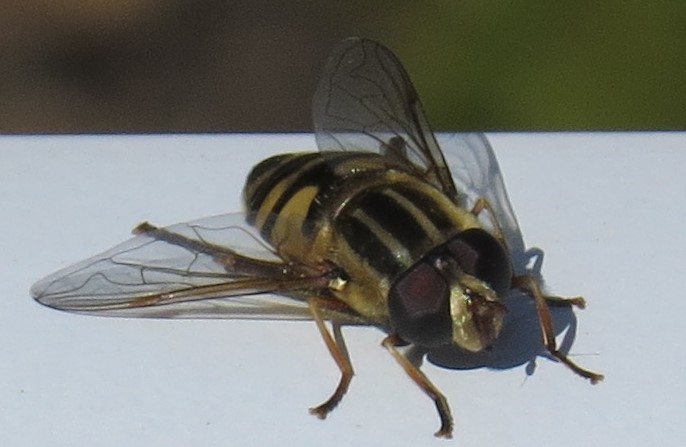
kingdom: Animalia
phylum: Arthropoda
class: Insecta
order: Diptera
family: Syrphidae
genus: Helophilus
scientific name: Helophilus fasciatus
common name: Narrow-headed marsh fly
